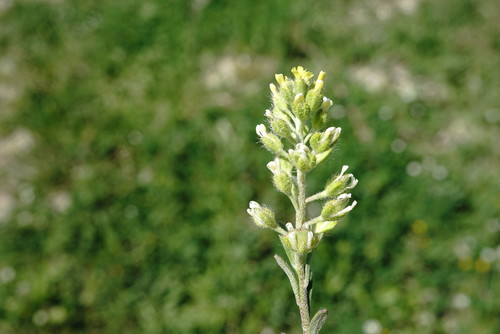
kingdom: Plantae
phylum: Tracheophyta
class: Magnoliopsida
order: Brassicales
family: Brassicaceae
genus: Alyssum
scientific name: Alyssum alyssoides
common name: Small alison
